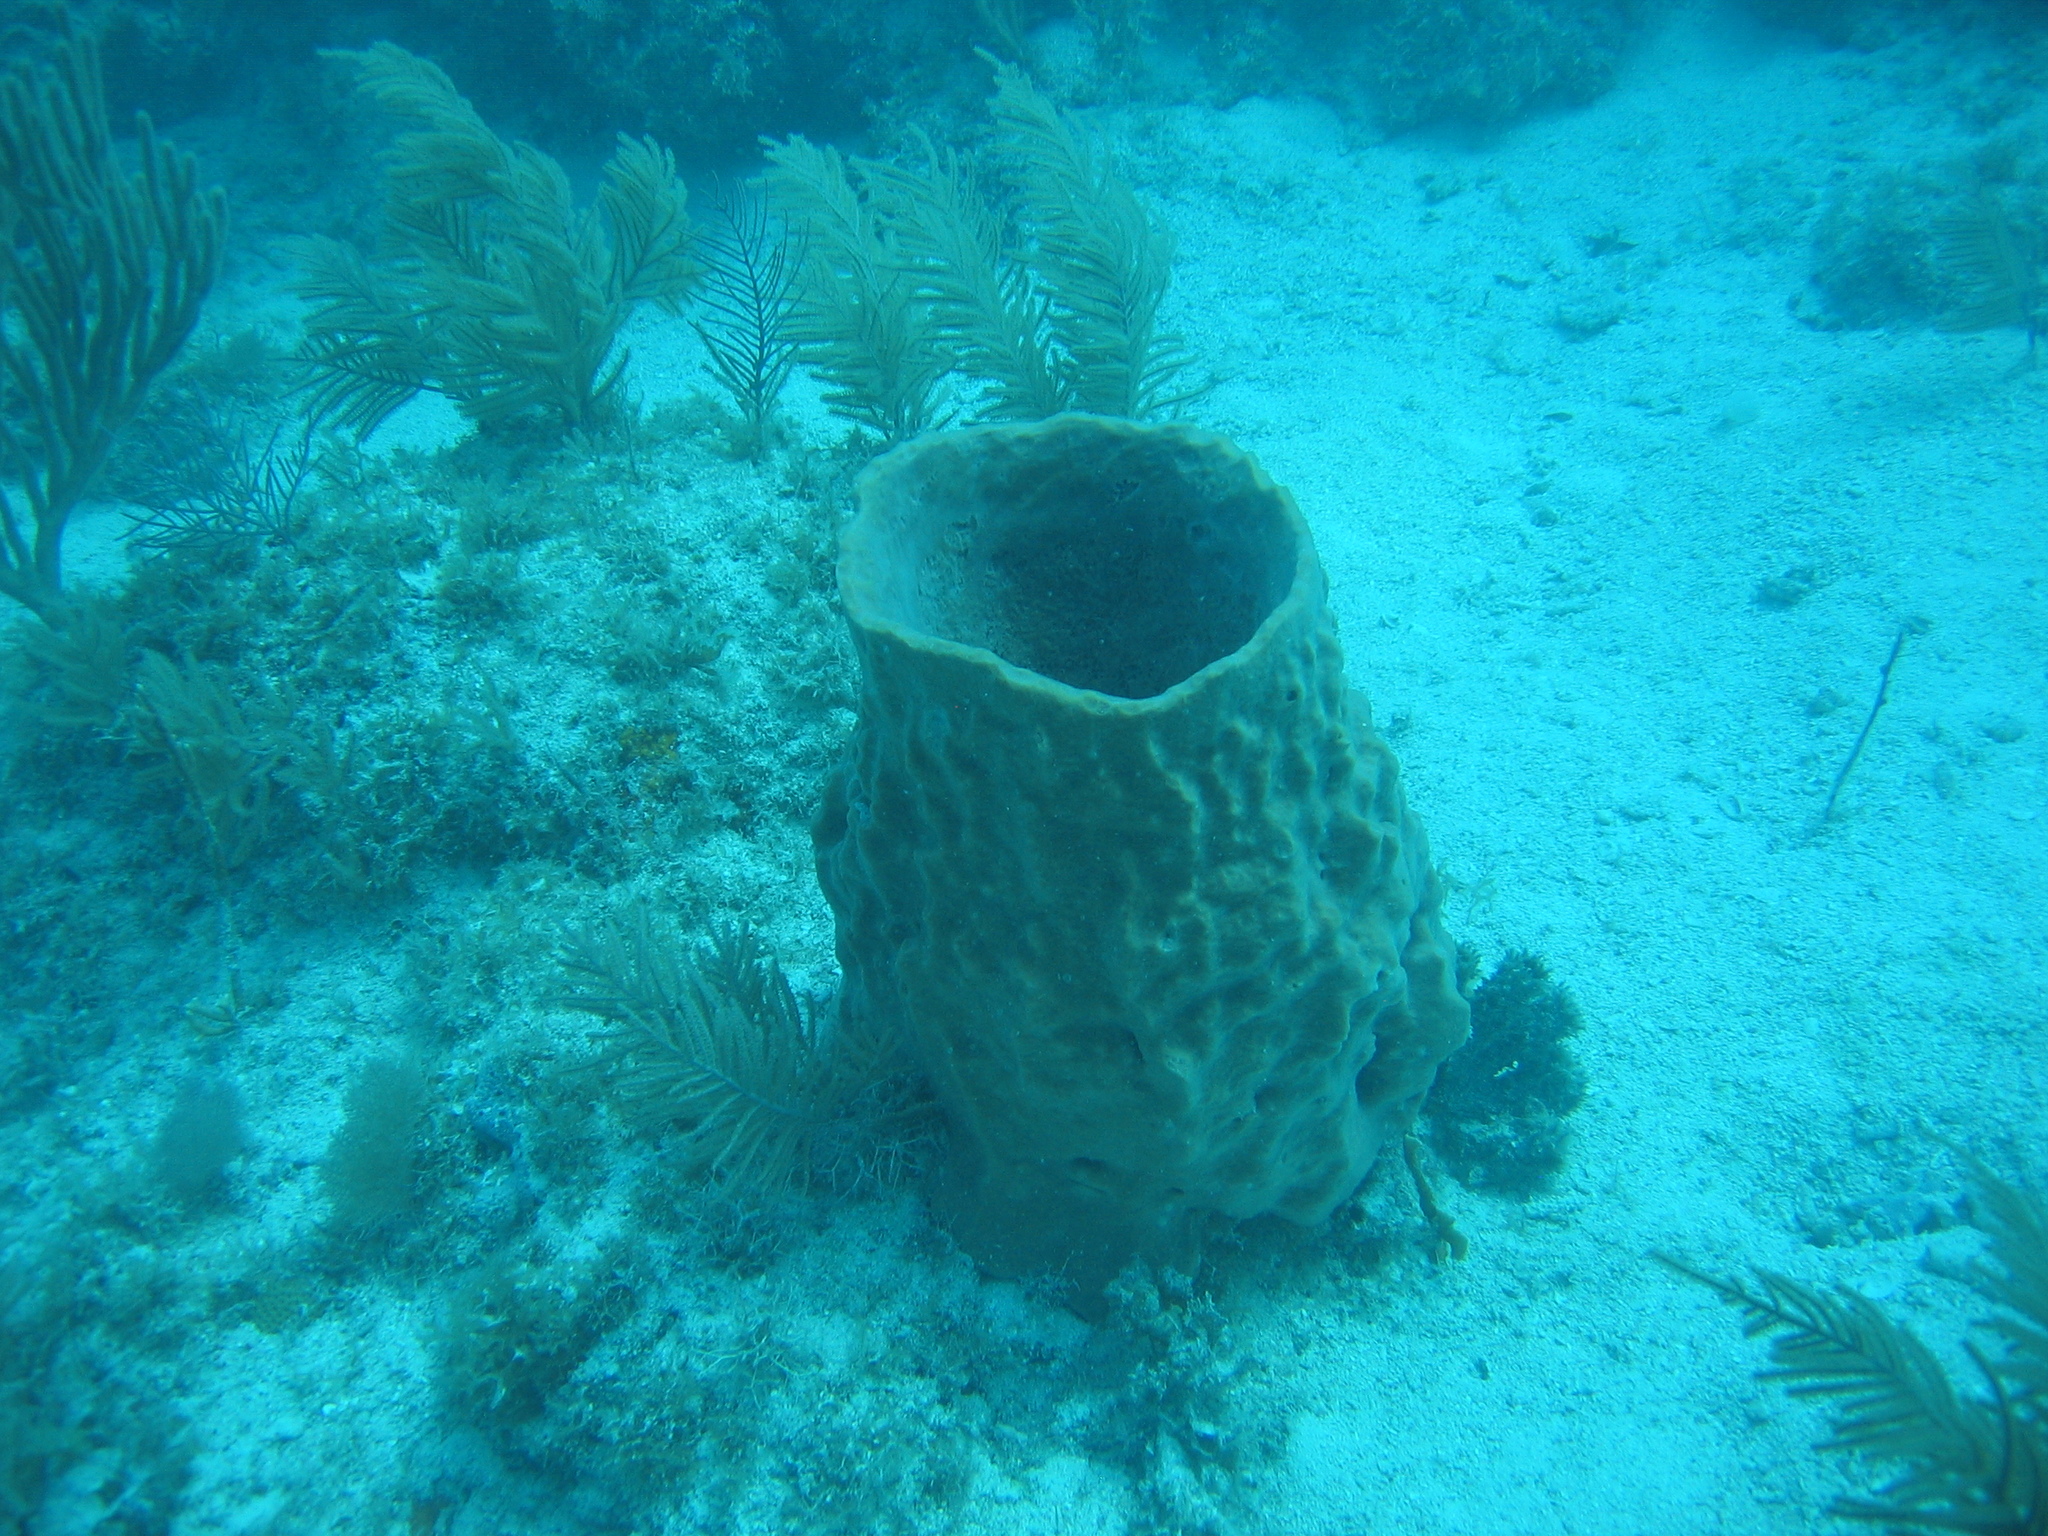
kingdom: Animalia
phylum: Porifera
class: Demospongiae
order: Haplosclerida
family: Petrosiidae
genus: Xestospongia
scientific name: Xestospongia muta
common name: Giant barrel sponge
